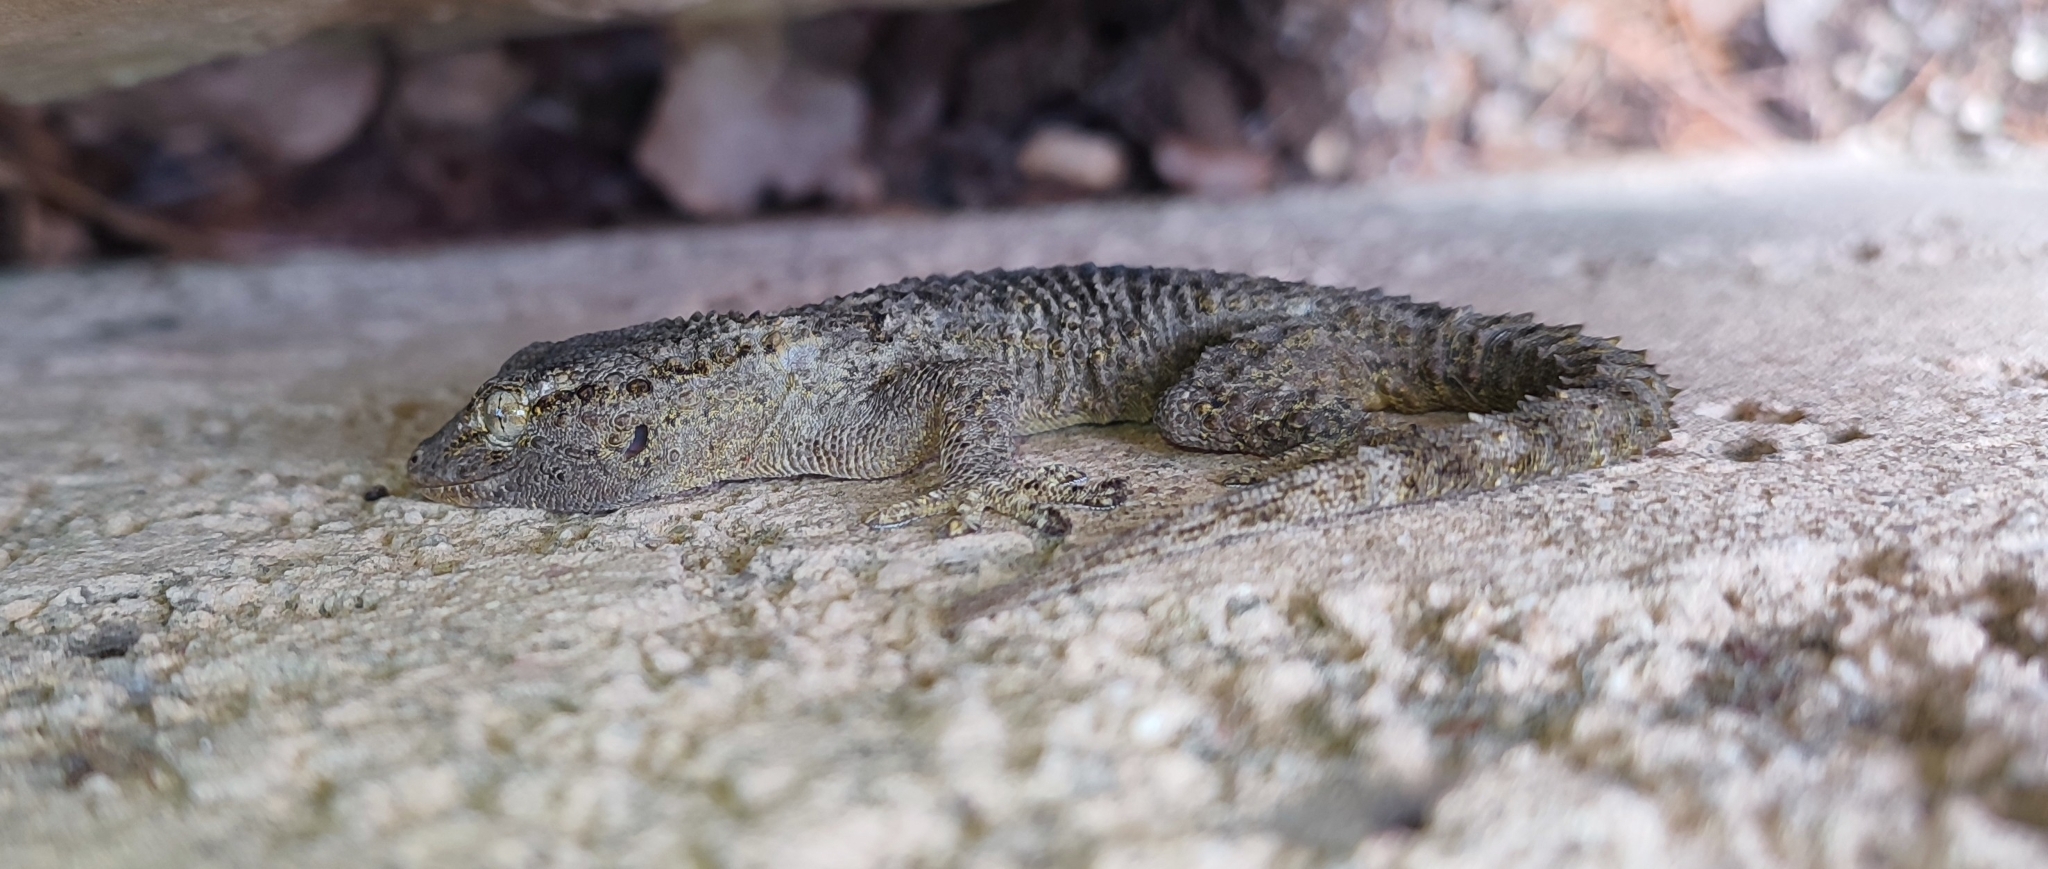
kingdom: Animalia
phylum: Chordata
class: Squamata
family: Phyllodactylidae
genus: Tarentola
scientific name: Tarentola mauritanica
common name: Moorish gecko
